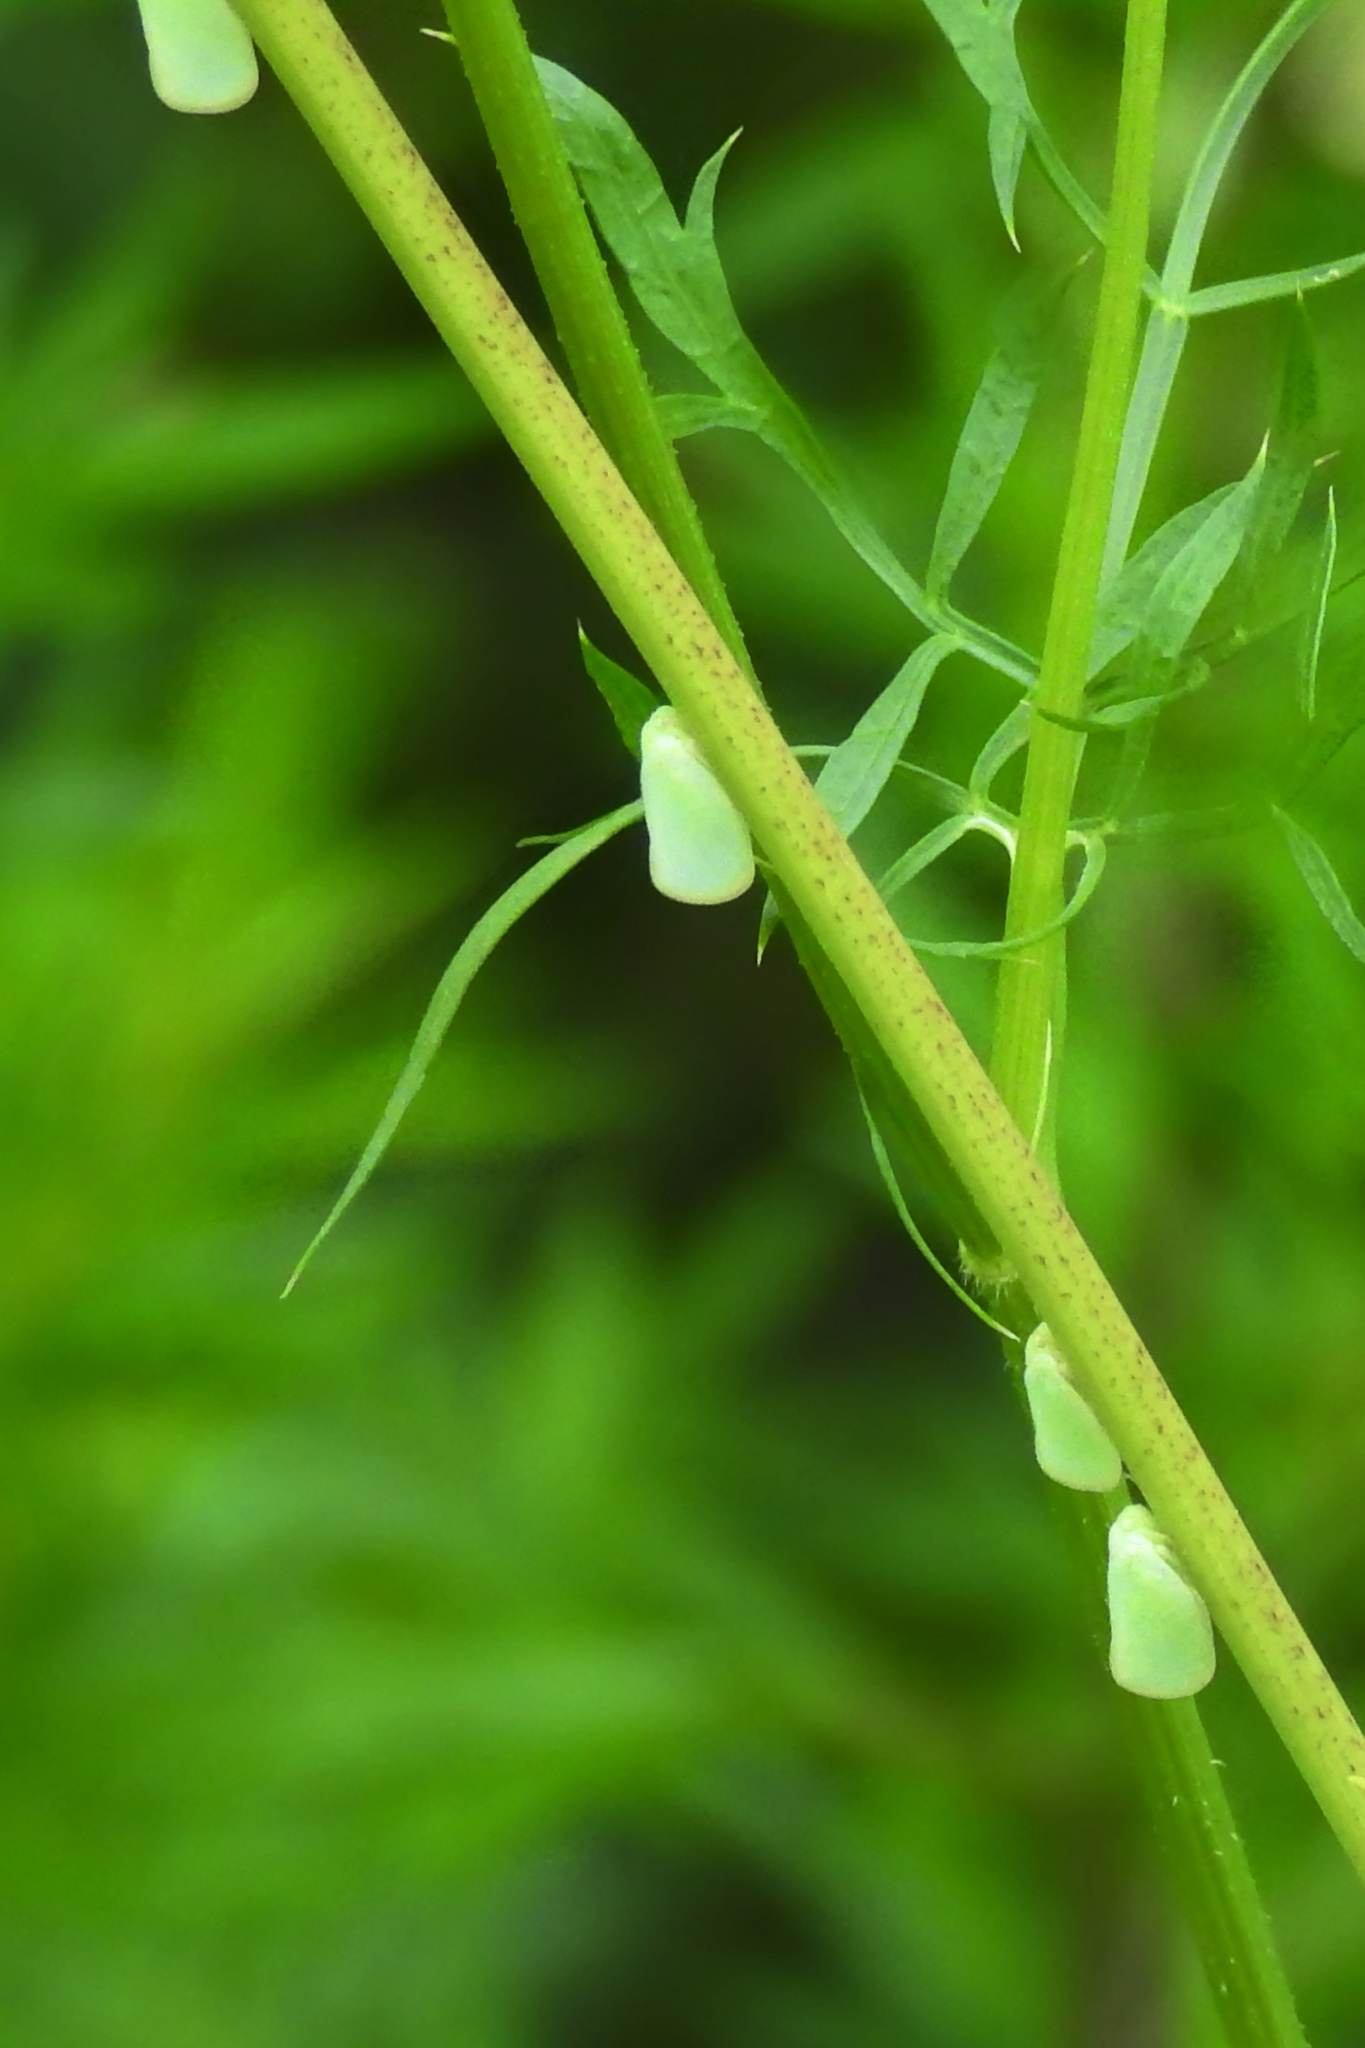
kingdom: Animalia
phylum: Arthropoda
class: Insecta
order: Hemiptera
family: Flatidae
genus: Ormenoides
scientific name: Ormenoides venusta
